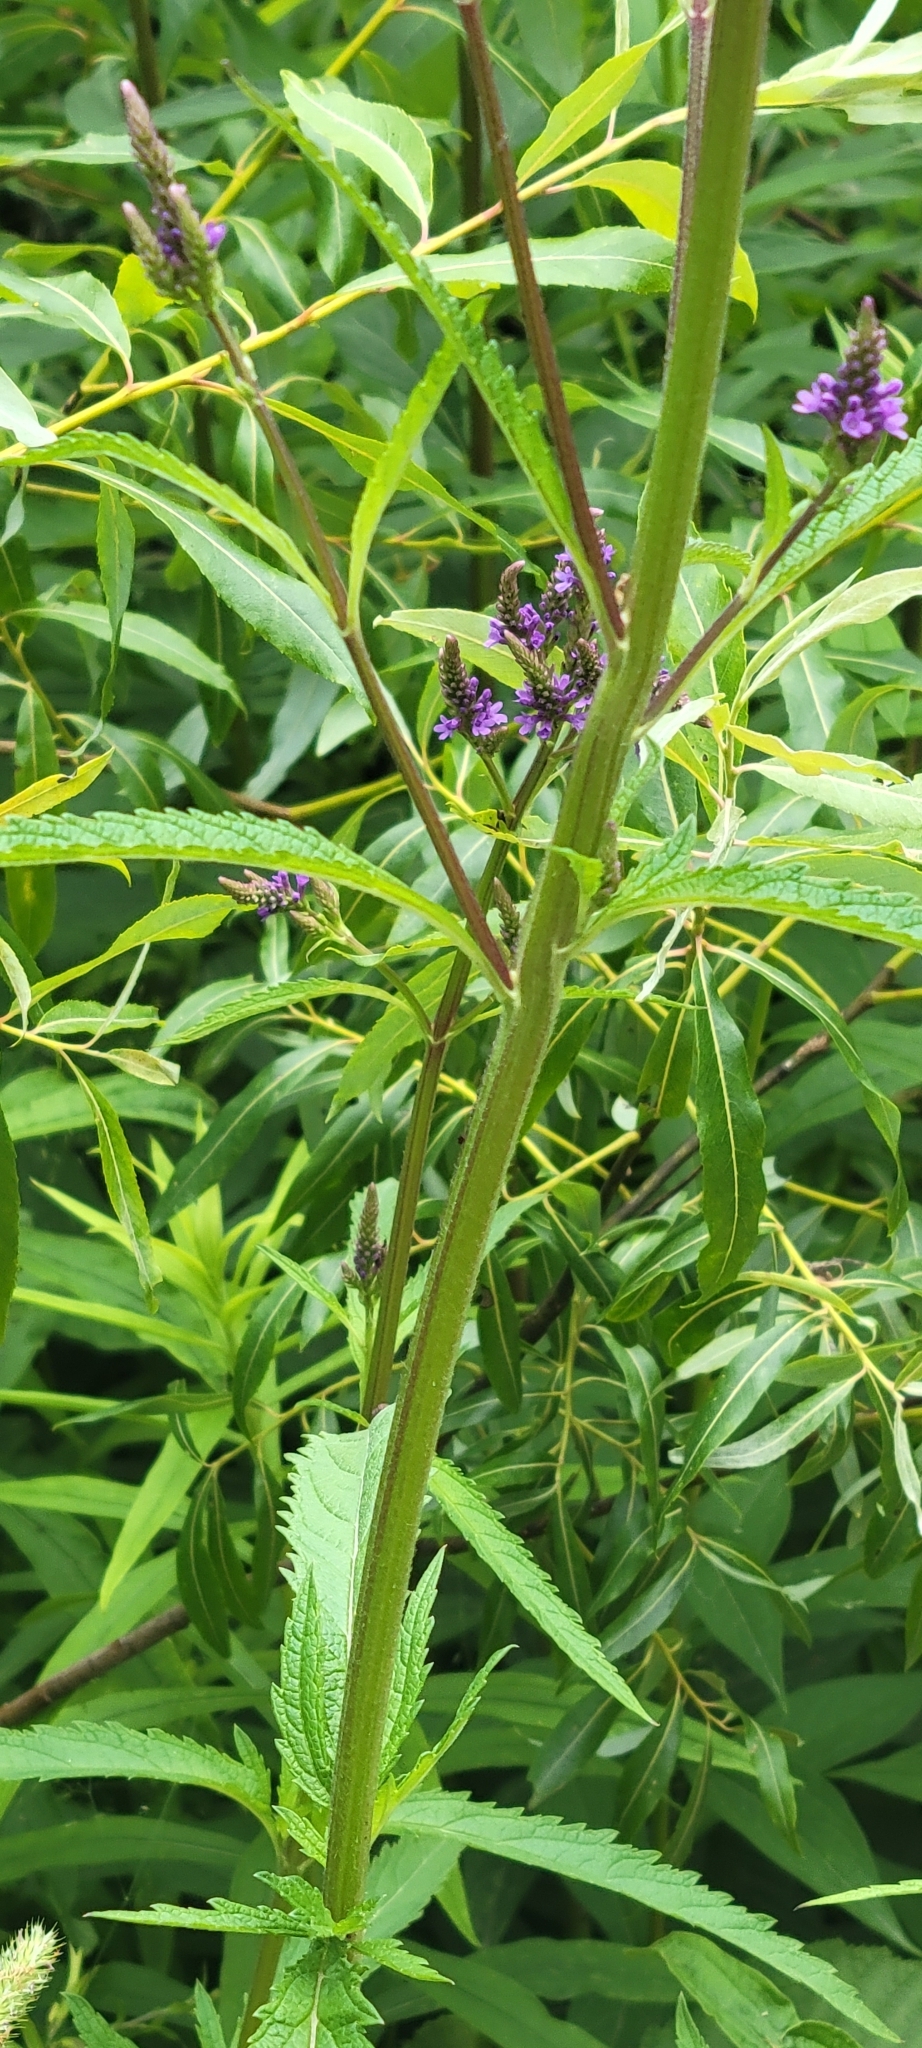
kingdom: Plantae
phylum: Tracheophyta
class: Magnoliopsida
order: Lamiales
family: Verbenaceae
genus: Verbena
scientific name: Verbena hastata
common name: American blue vervain
